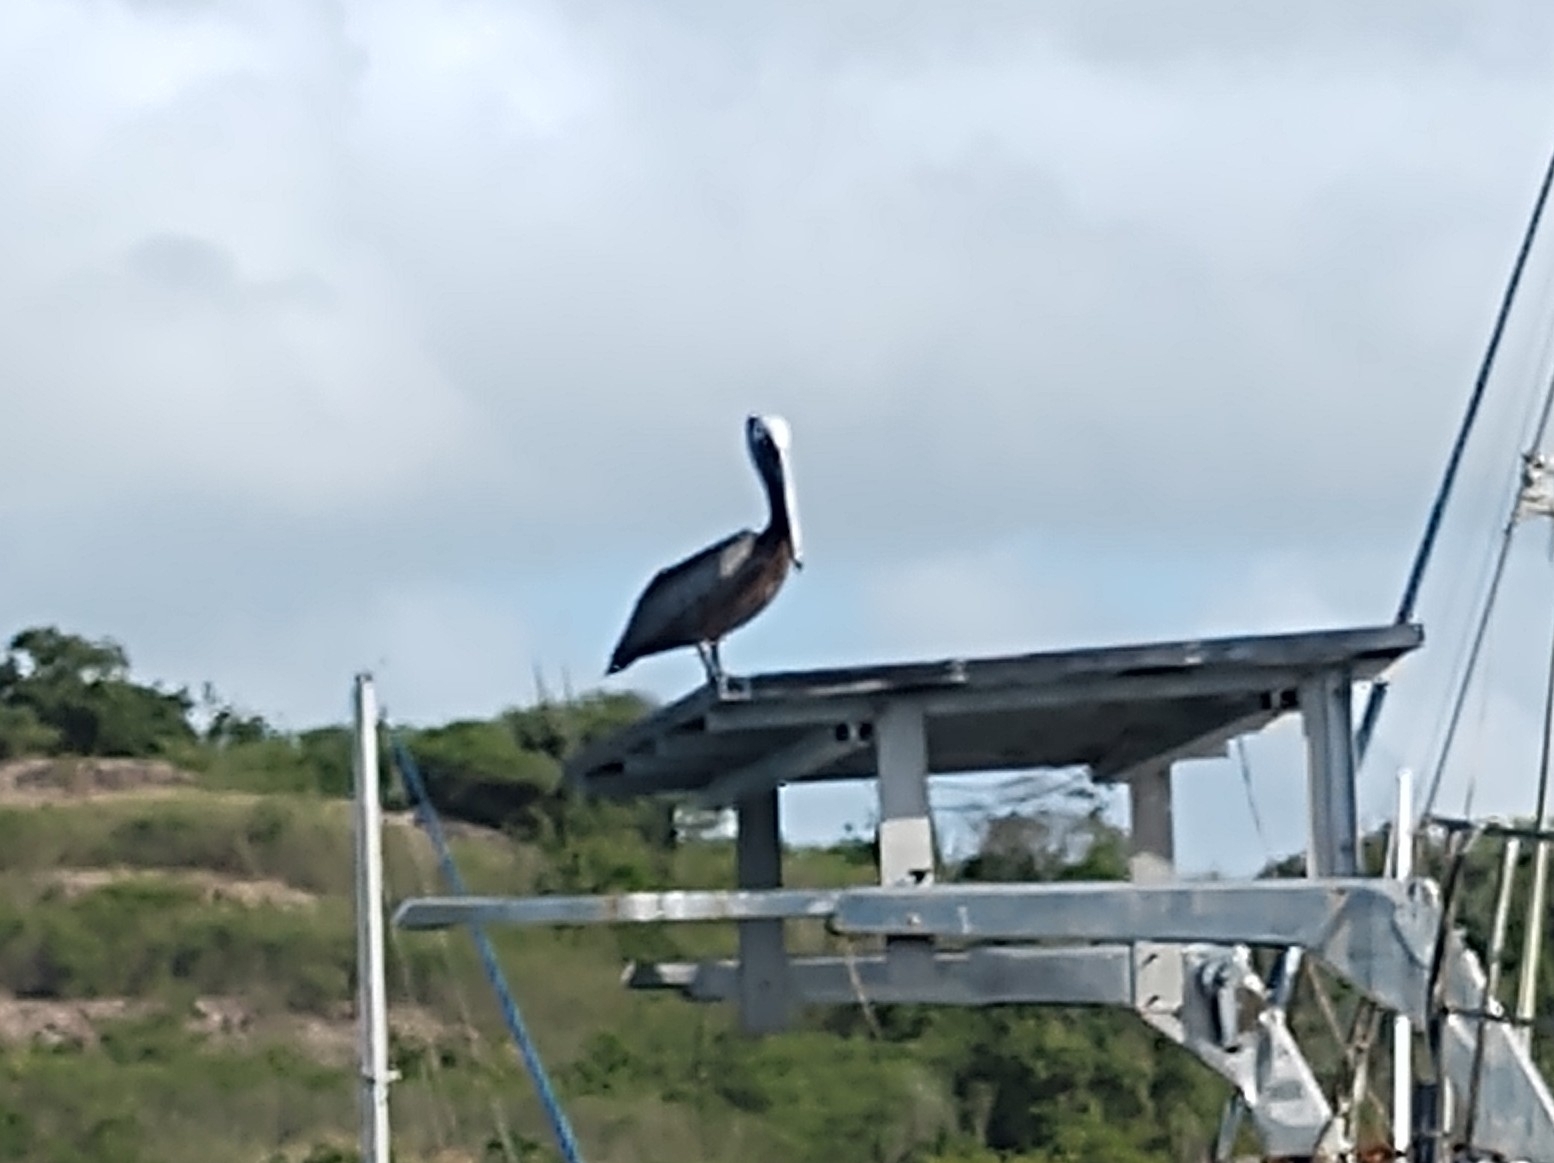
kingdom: Animalia
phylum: Chordata
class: Aves
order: Pelecaniformes
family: Pelecanidae
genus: Pelecanus
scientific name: Pelecanus occidentalis
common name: Brown pelican
